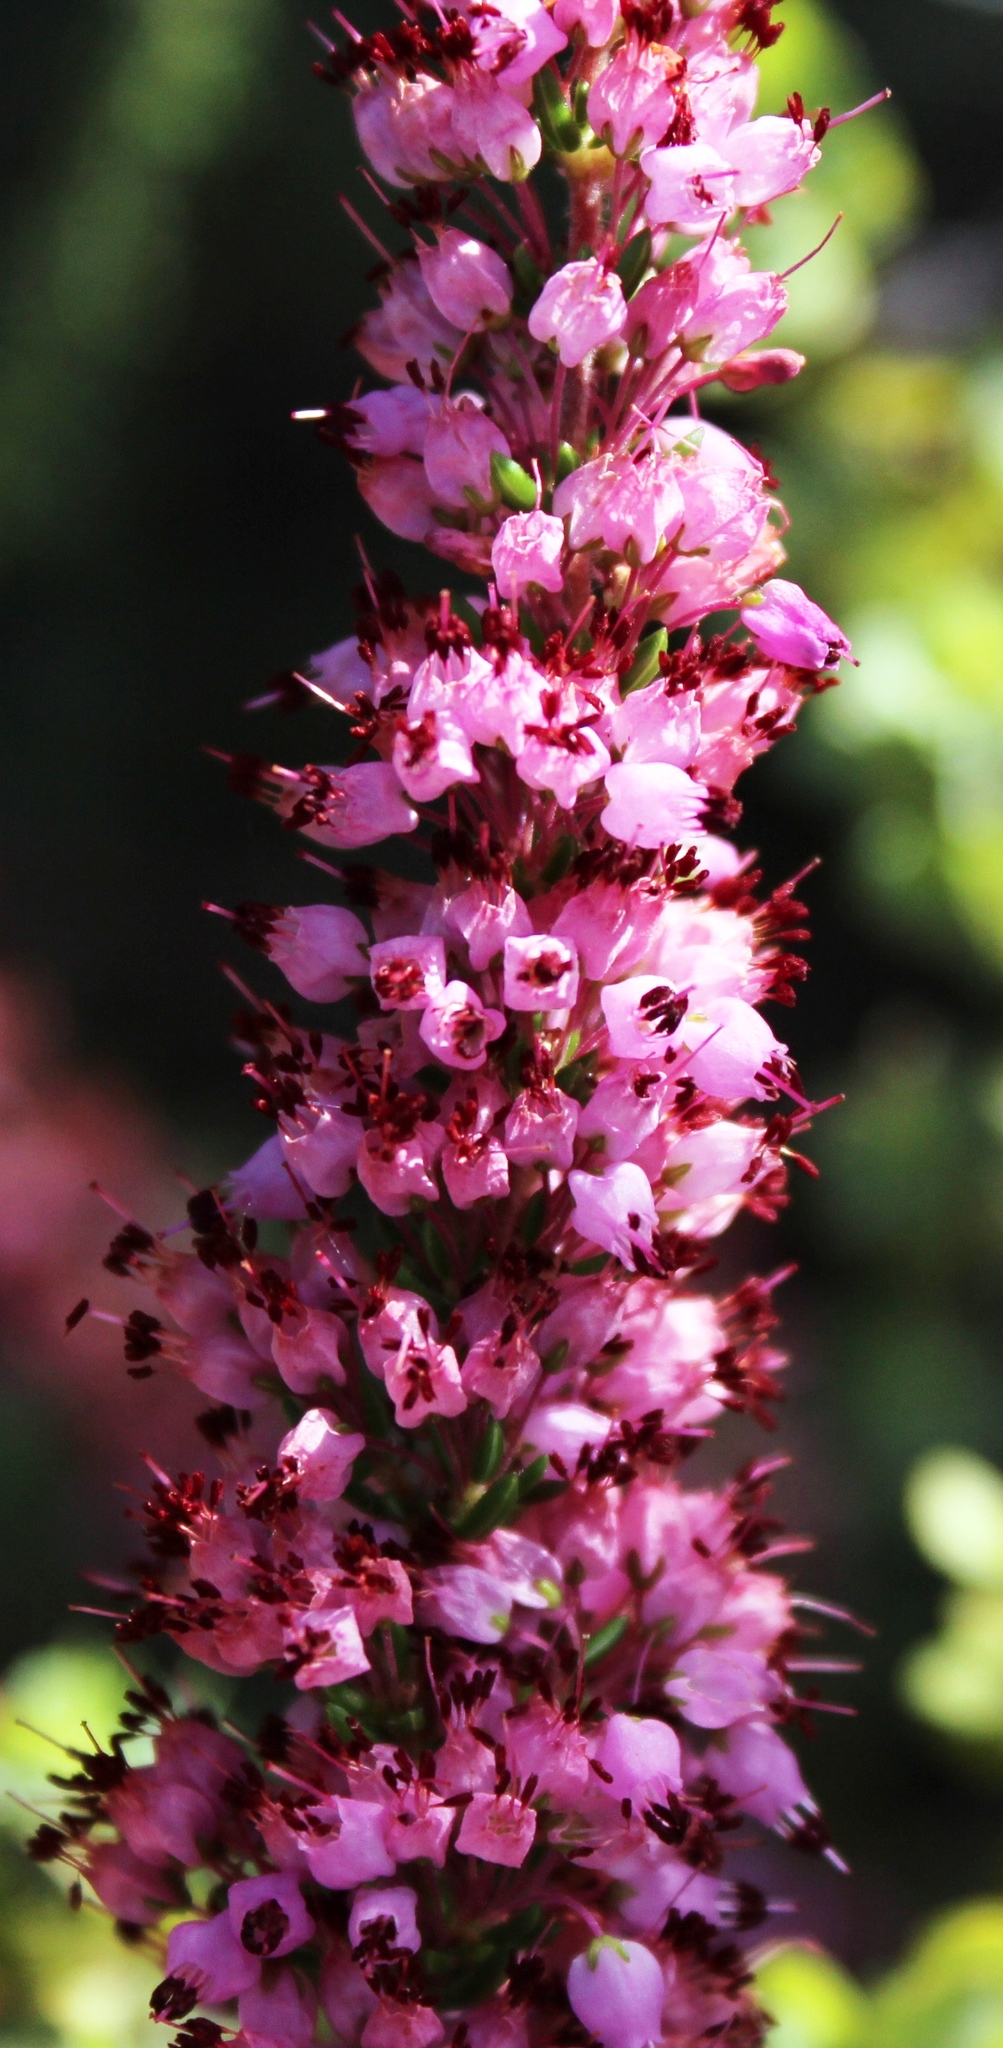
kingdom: Plantae
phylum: Tracheophyta
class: Magnoliopsida
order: Ericales
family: Ericaceae
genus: Erica
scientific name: Erica nudiflora
